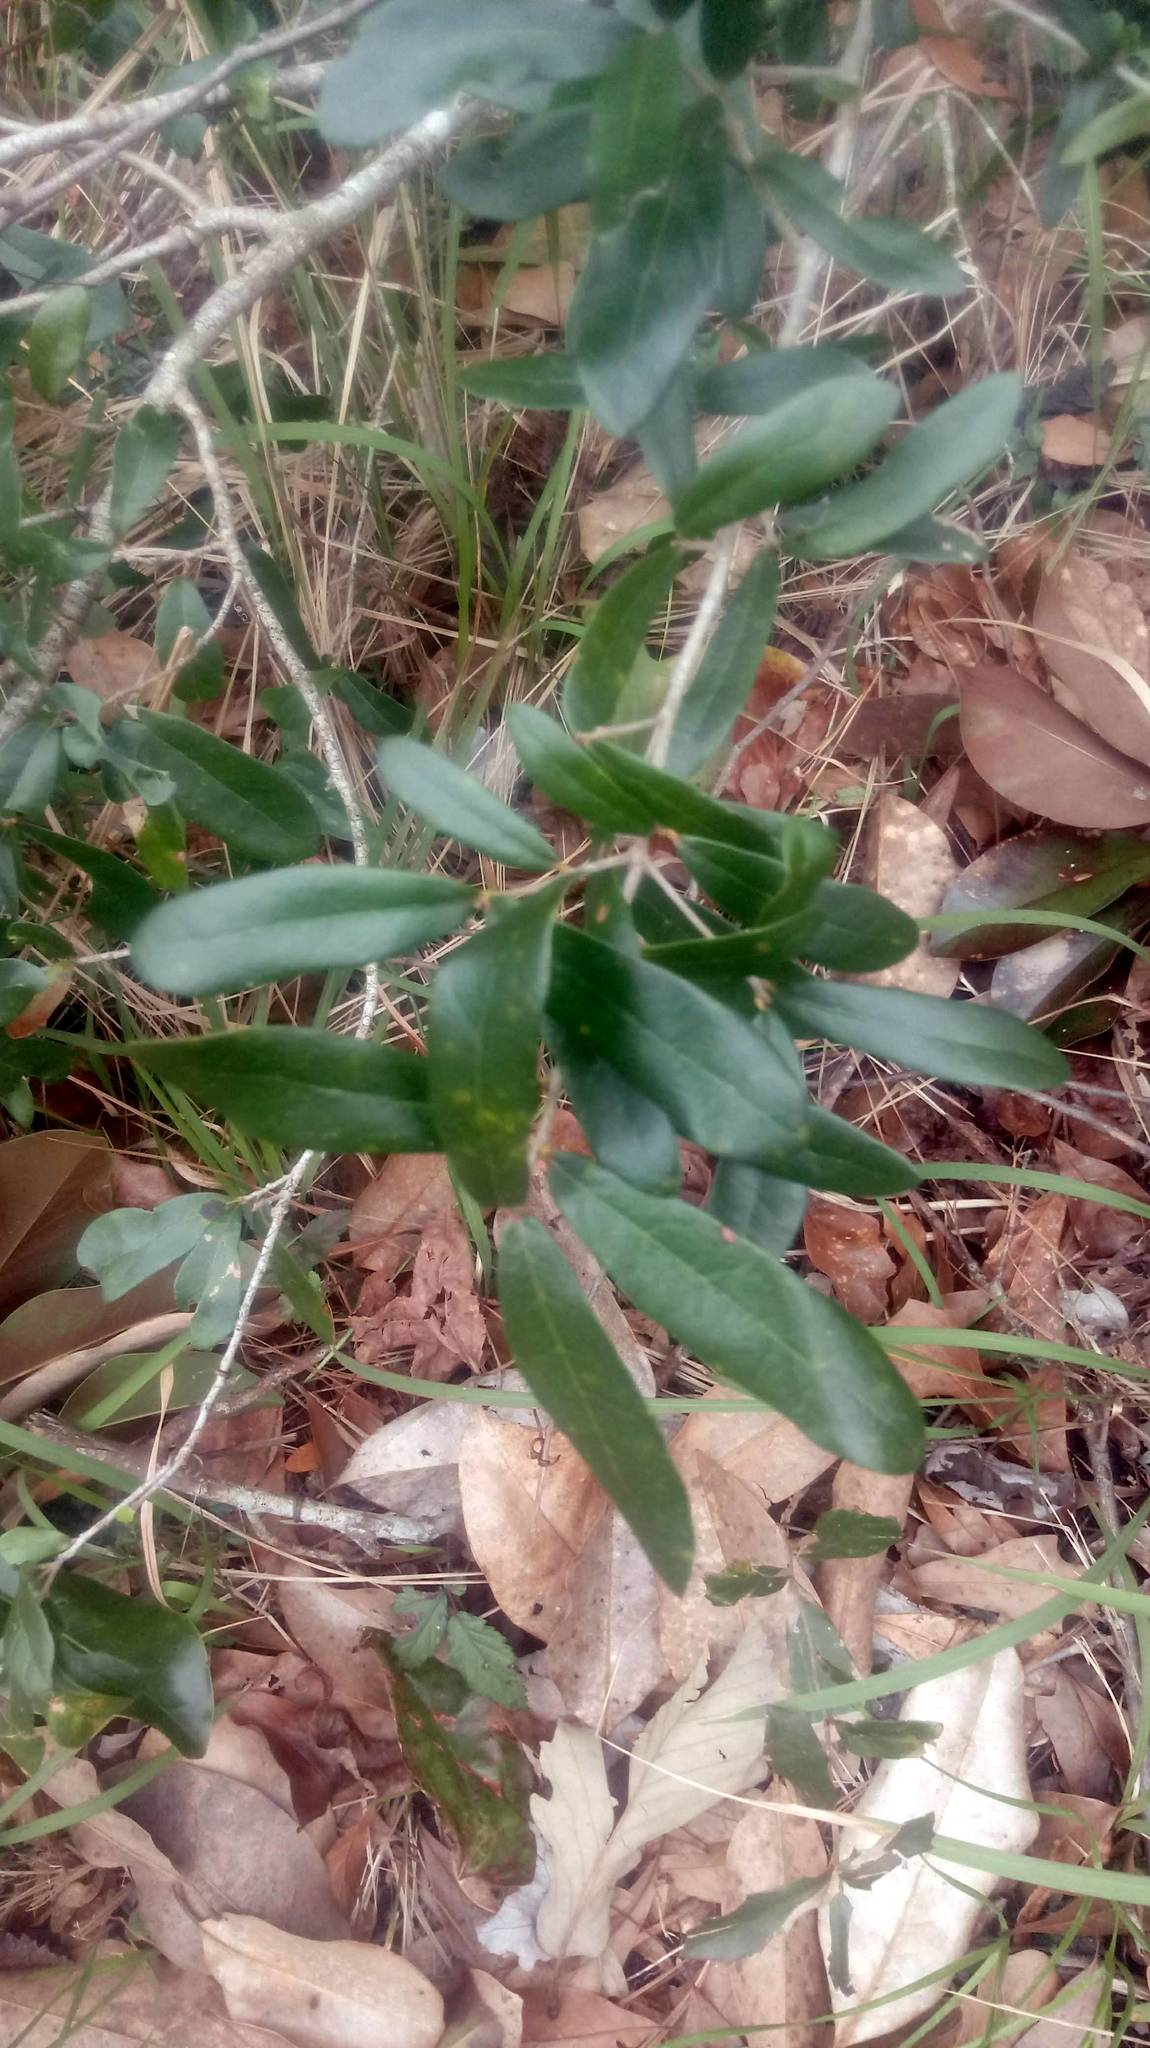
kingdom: Plantae
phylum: Tracheophyta
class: Magnoliopsida
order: Fagales
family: Fagaceae
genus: Quercus
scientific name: Quercus virginiana
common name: Southern live oak
